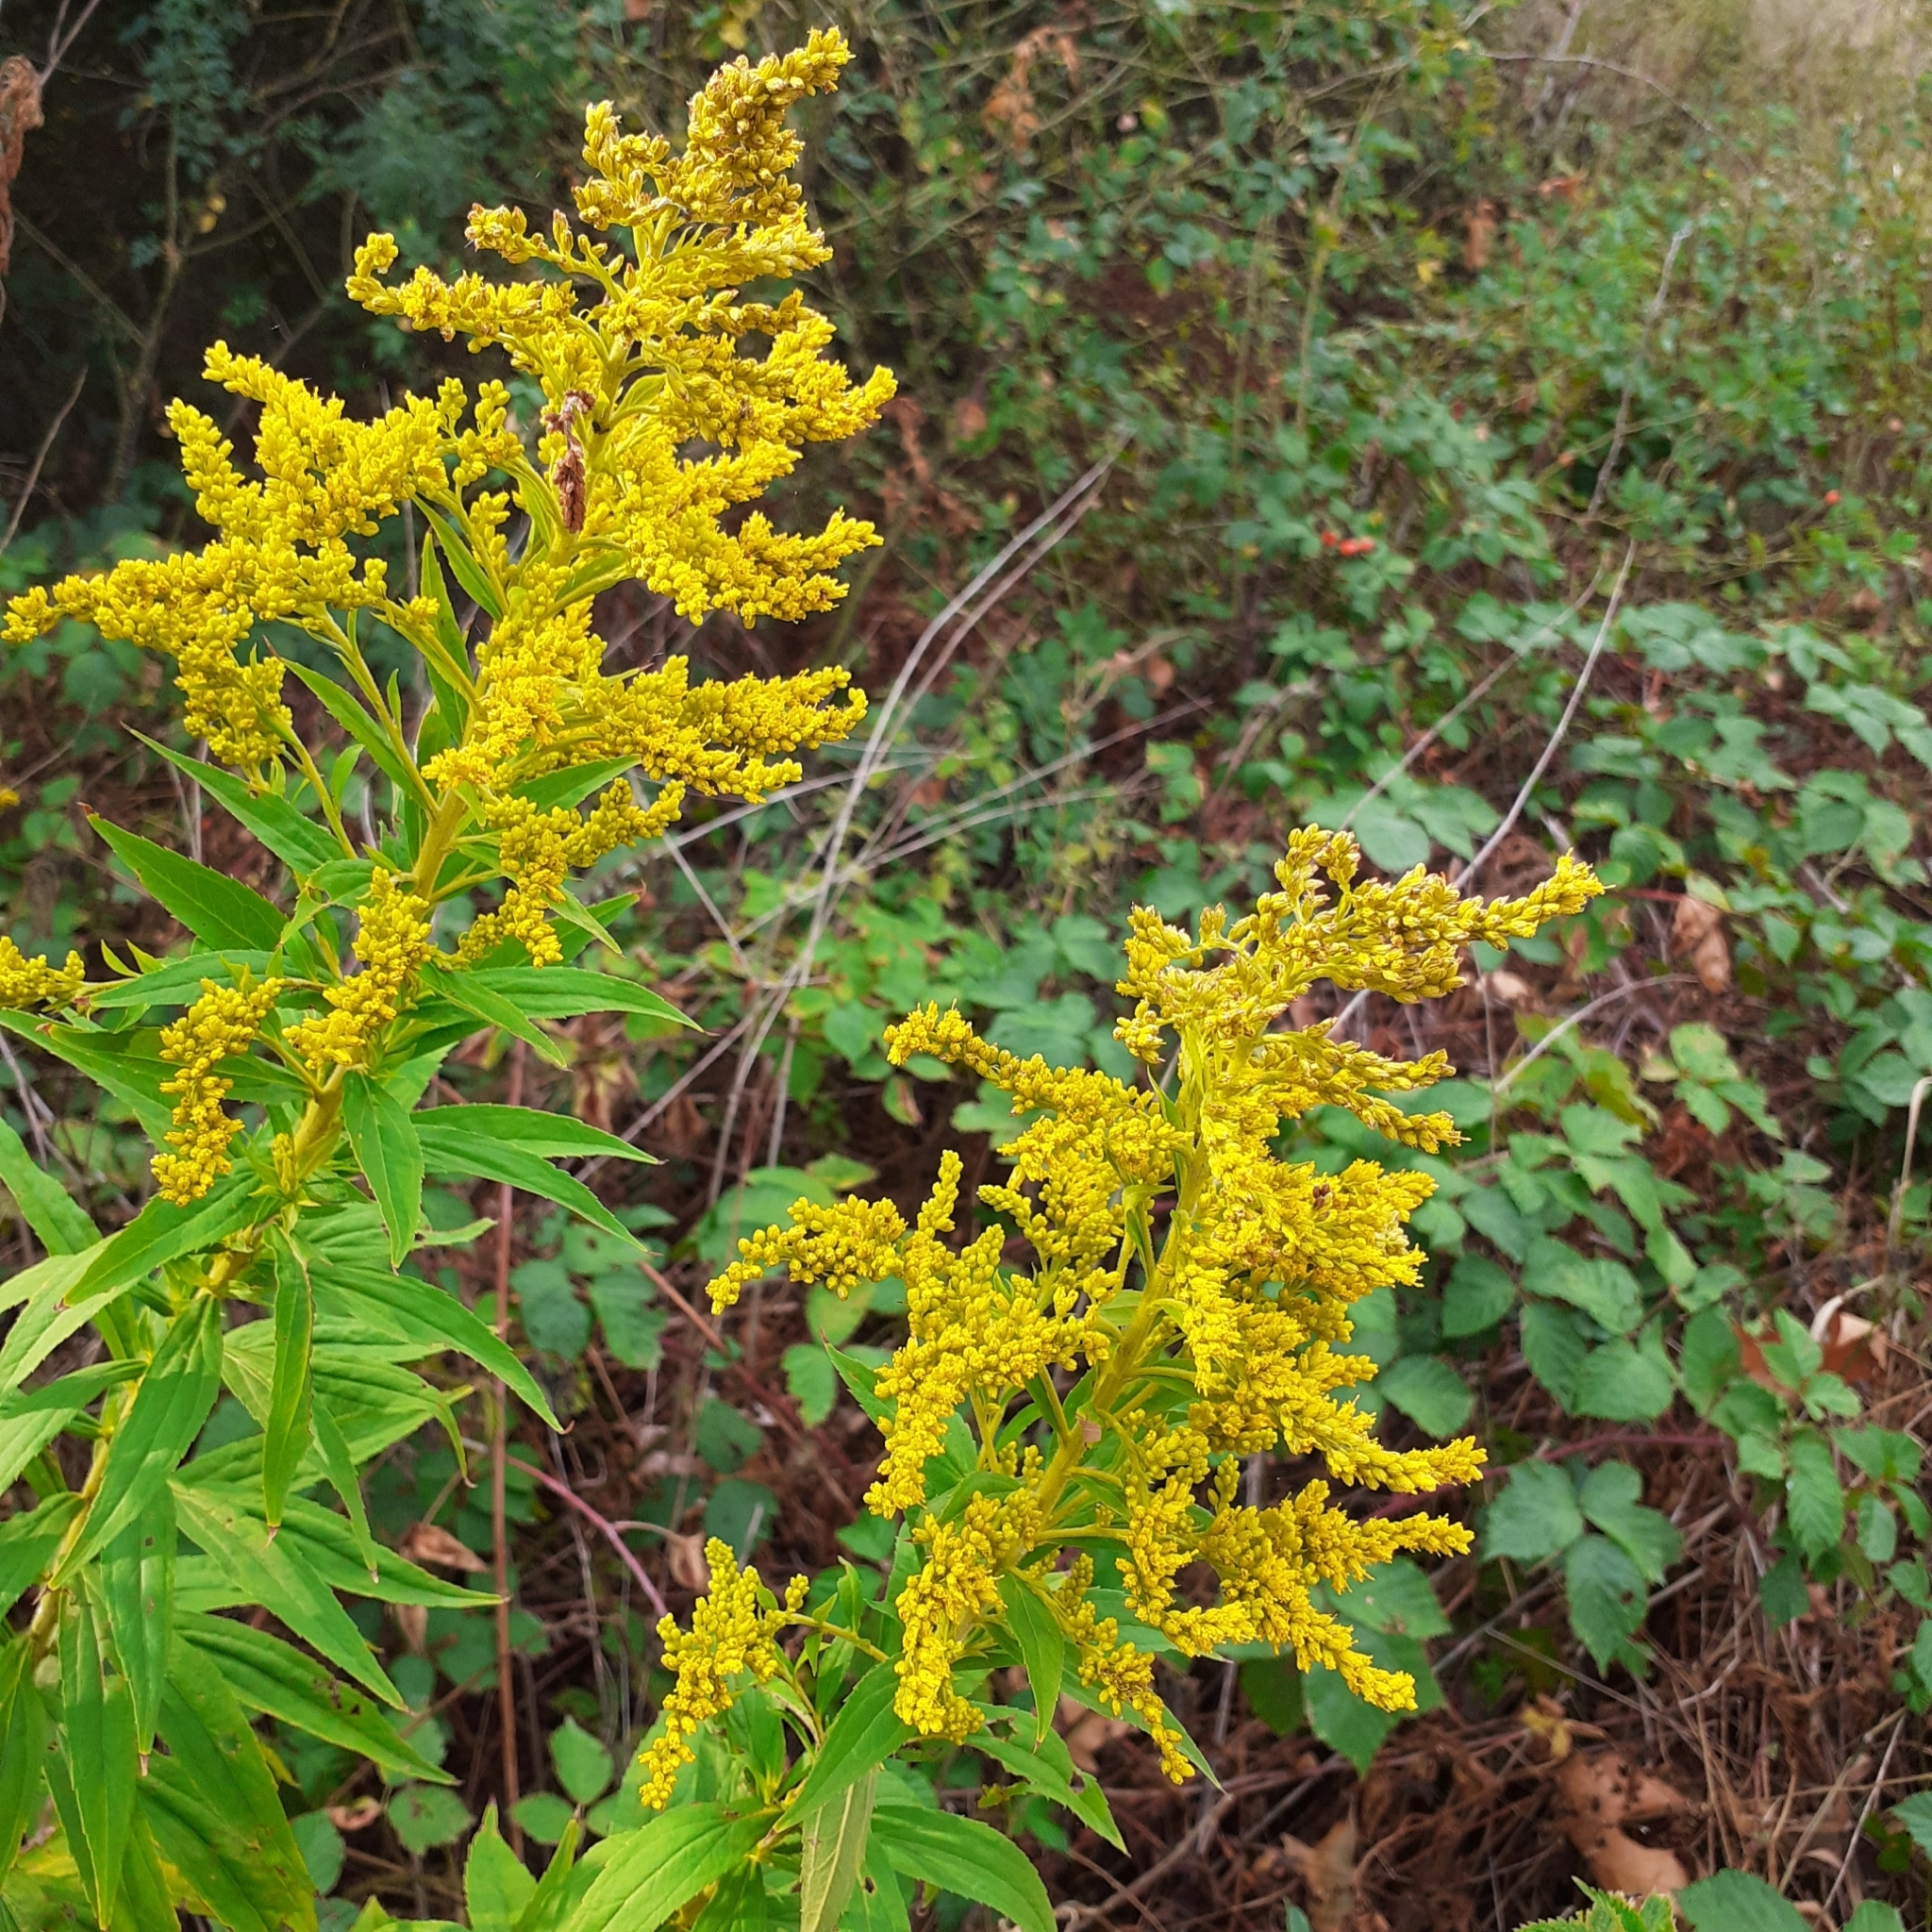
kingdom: Plantae
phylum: Tracheophyta
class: Magnoliopsida
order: Asterales
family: Asteraceae
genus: Solidago
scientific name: Solidago canadensis
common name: Canada goldenrod
